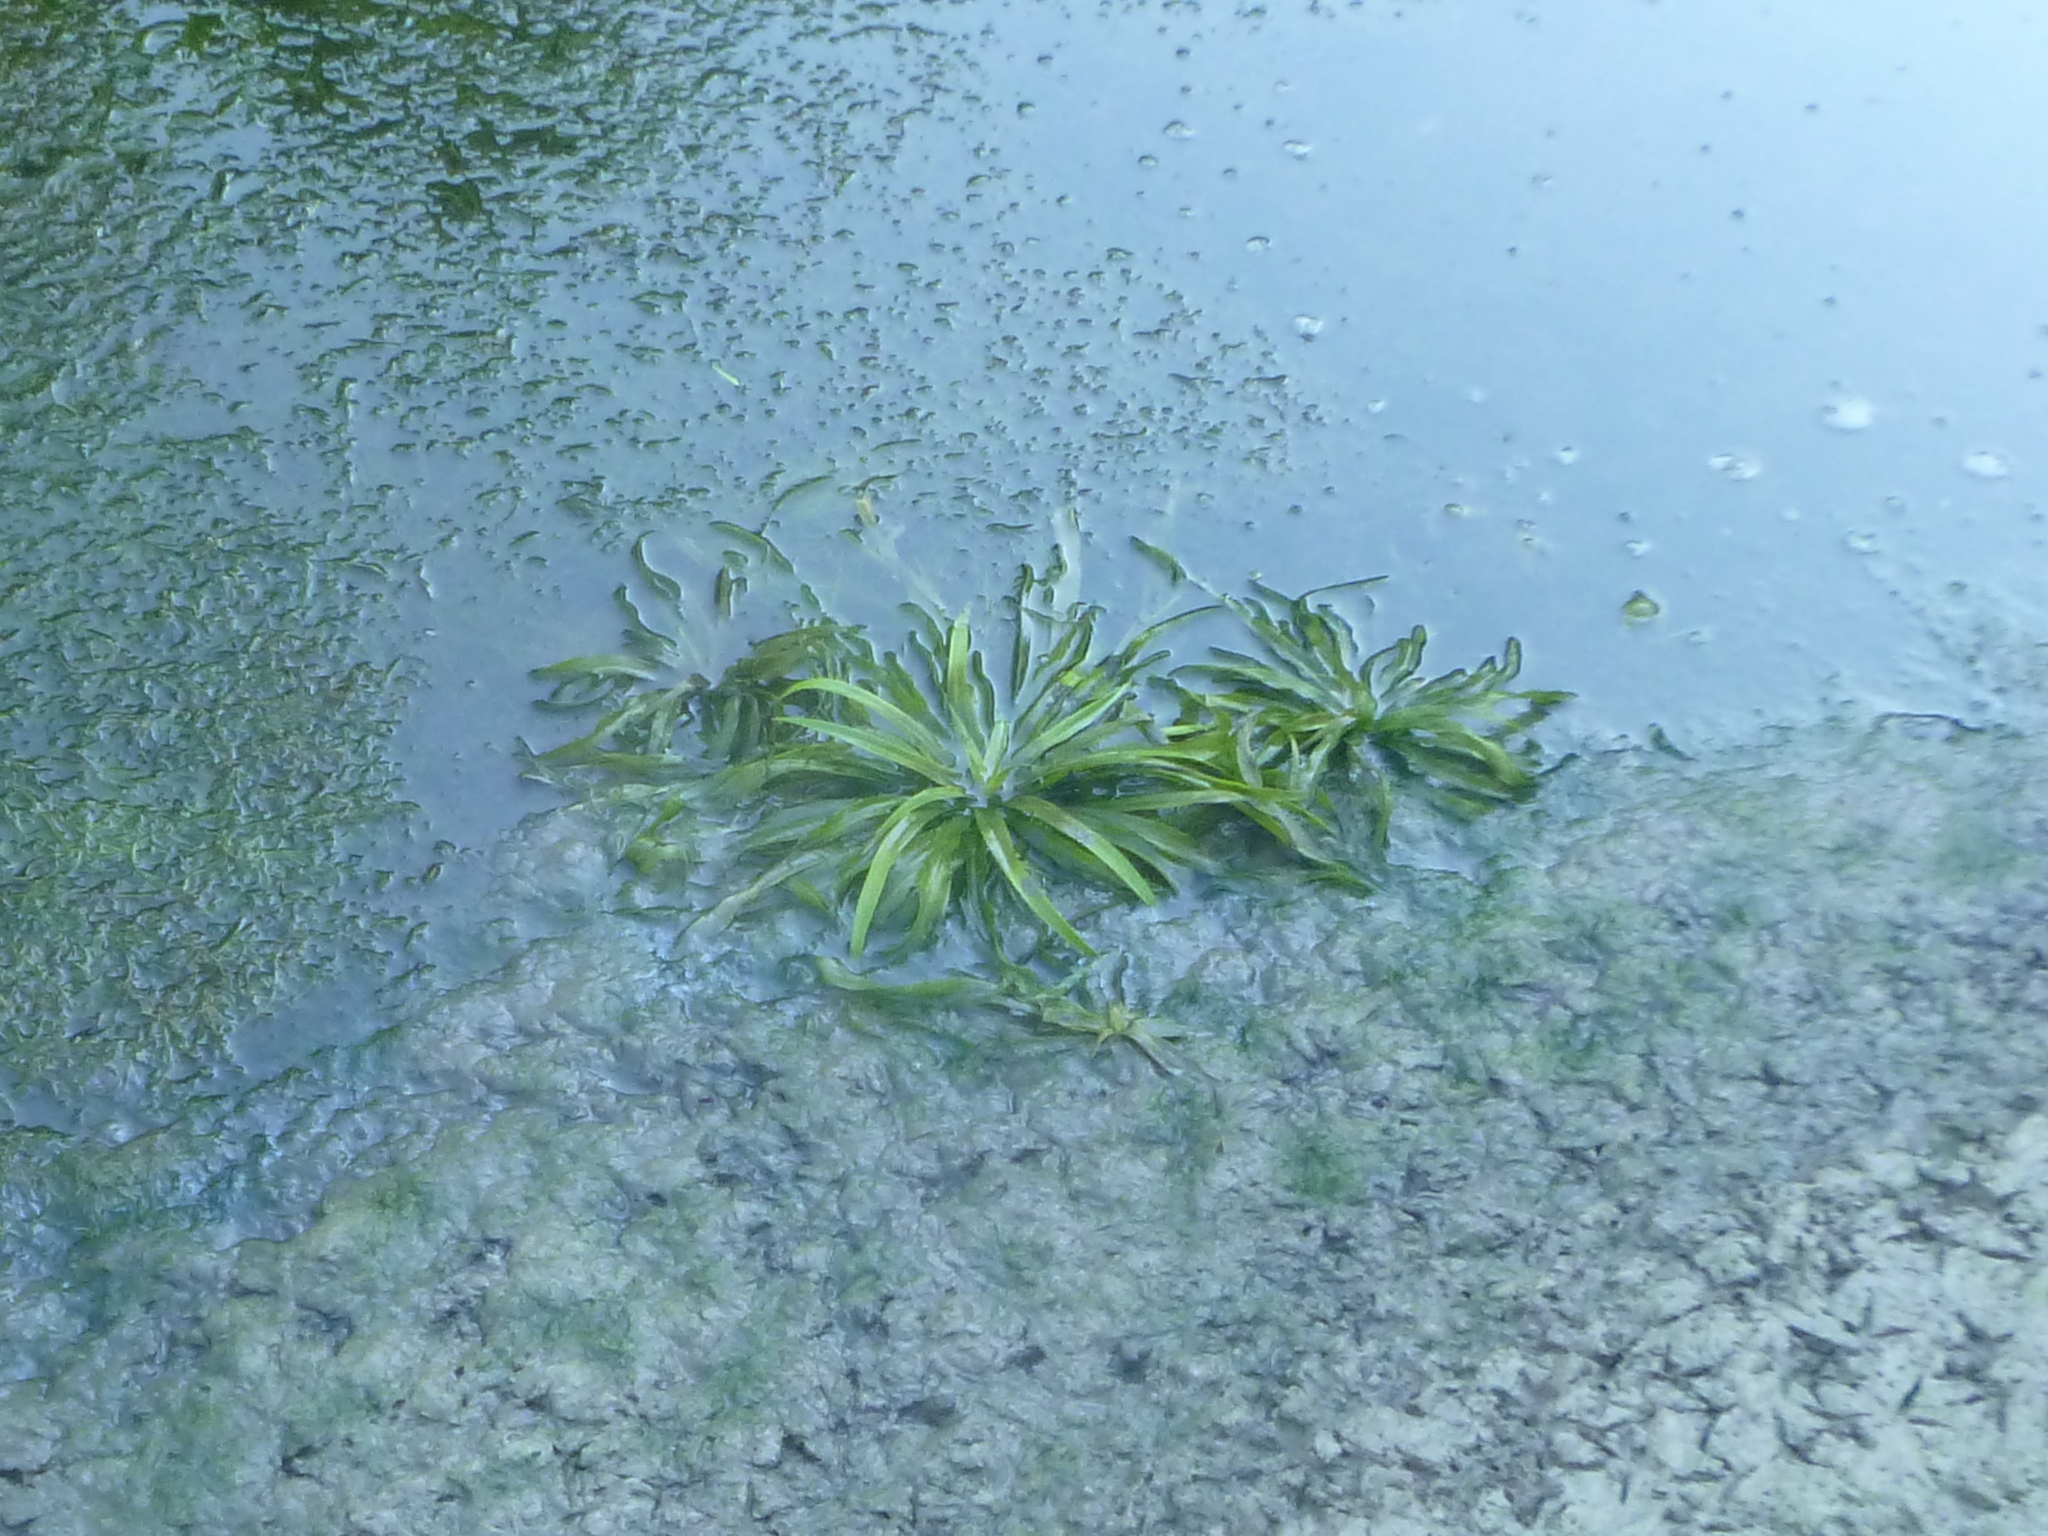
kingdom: Plantae
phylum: Tracheophyta
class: Liliopsida
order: Alismatales
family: Hydrocharitaceae
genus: Stratiotes
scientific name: Stratiotes aloides
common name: Water-soldier
